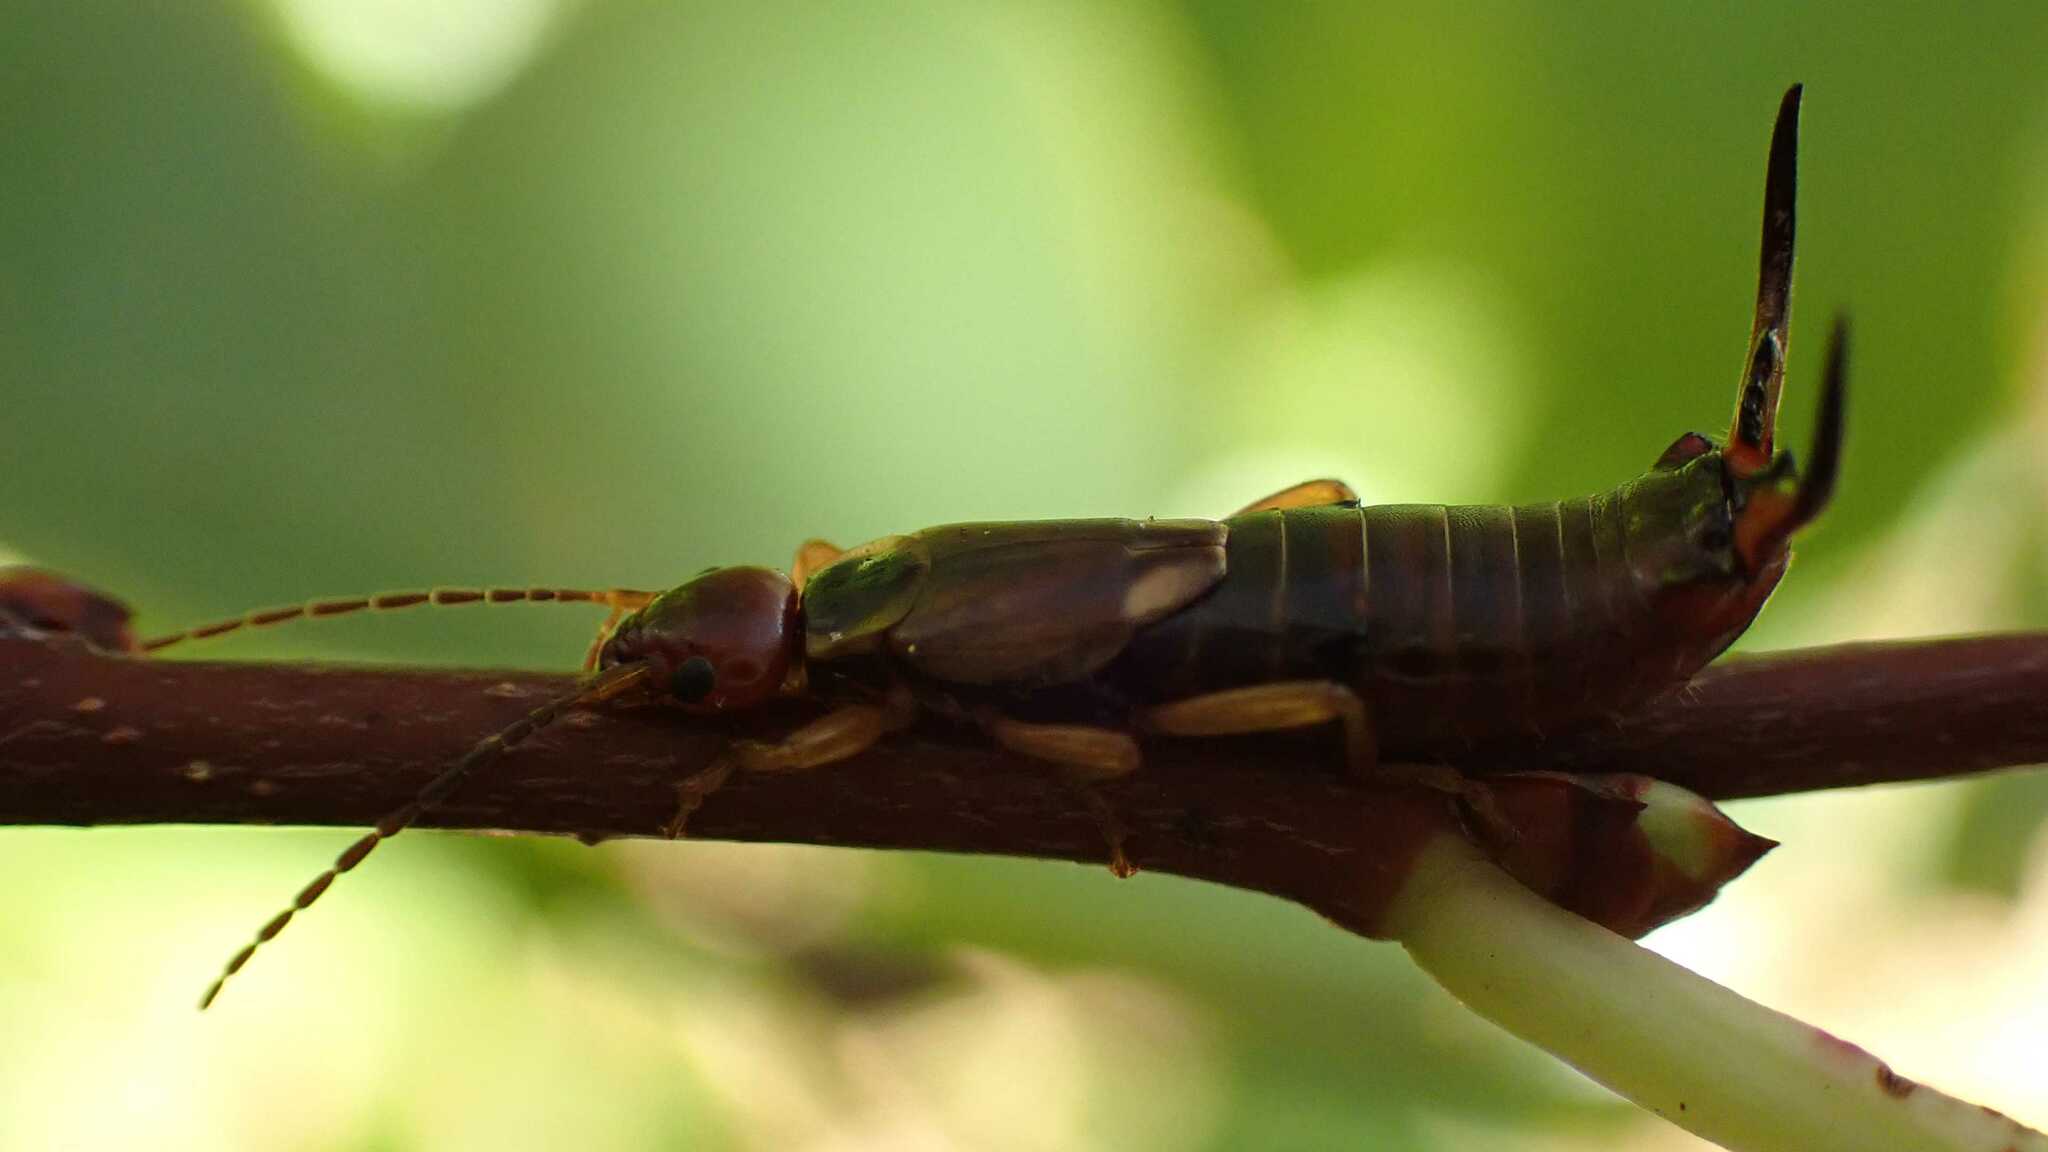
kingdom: Animalia
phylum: Arthropoda
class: Insecta
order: Dermaptera
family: Forficulidae
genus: Forficula
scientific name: Forficula
